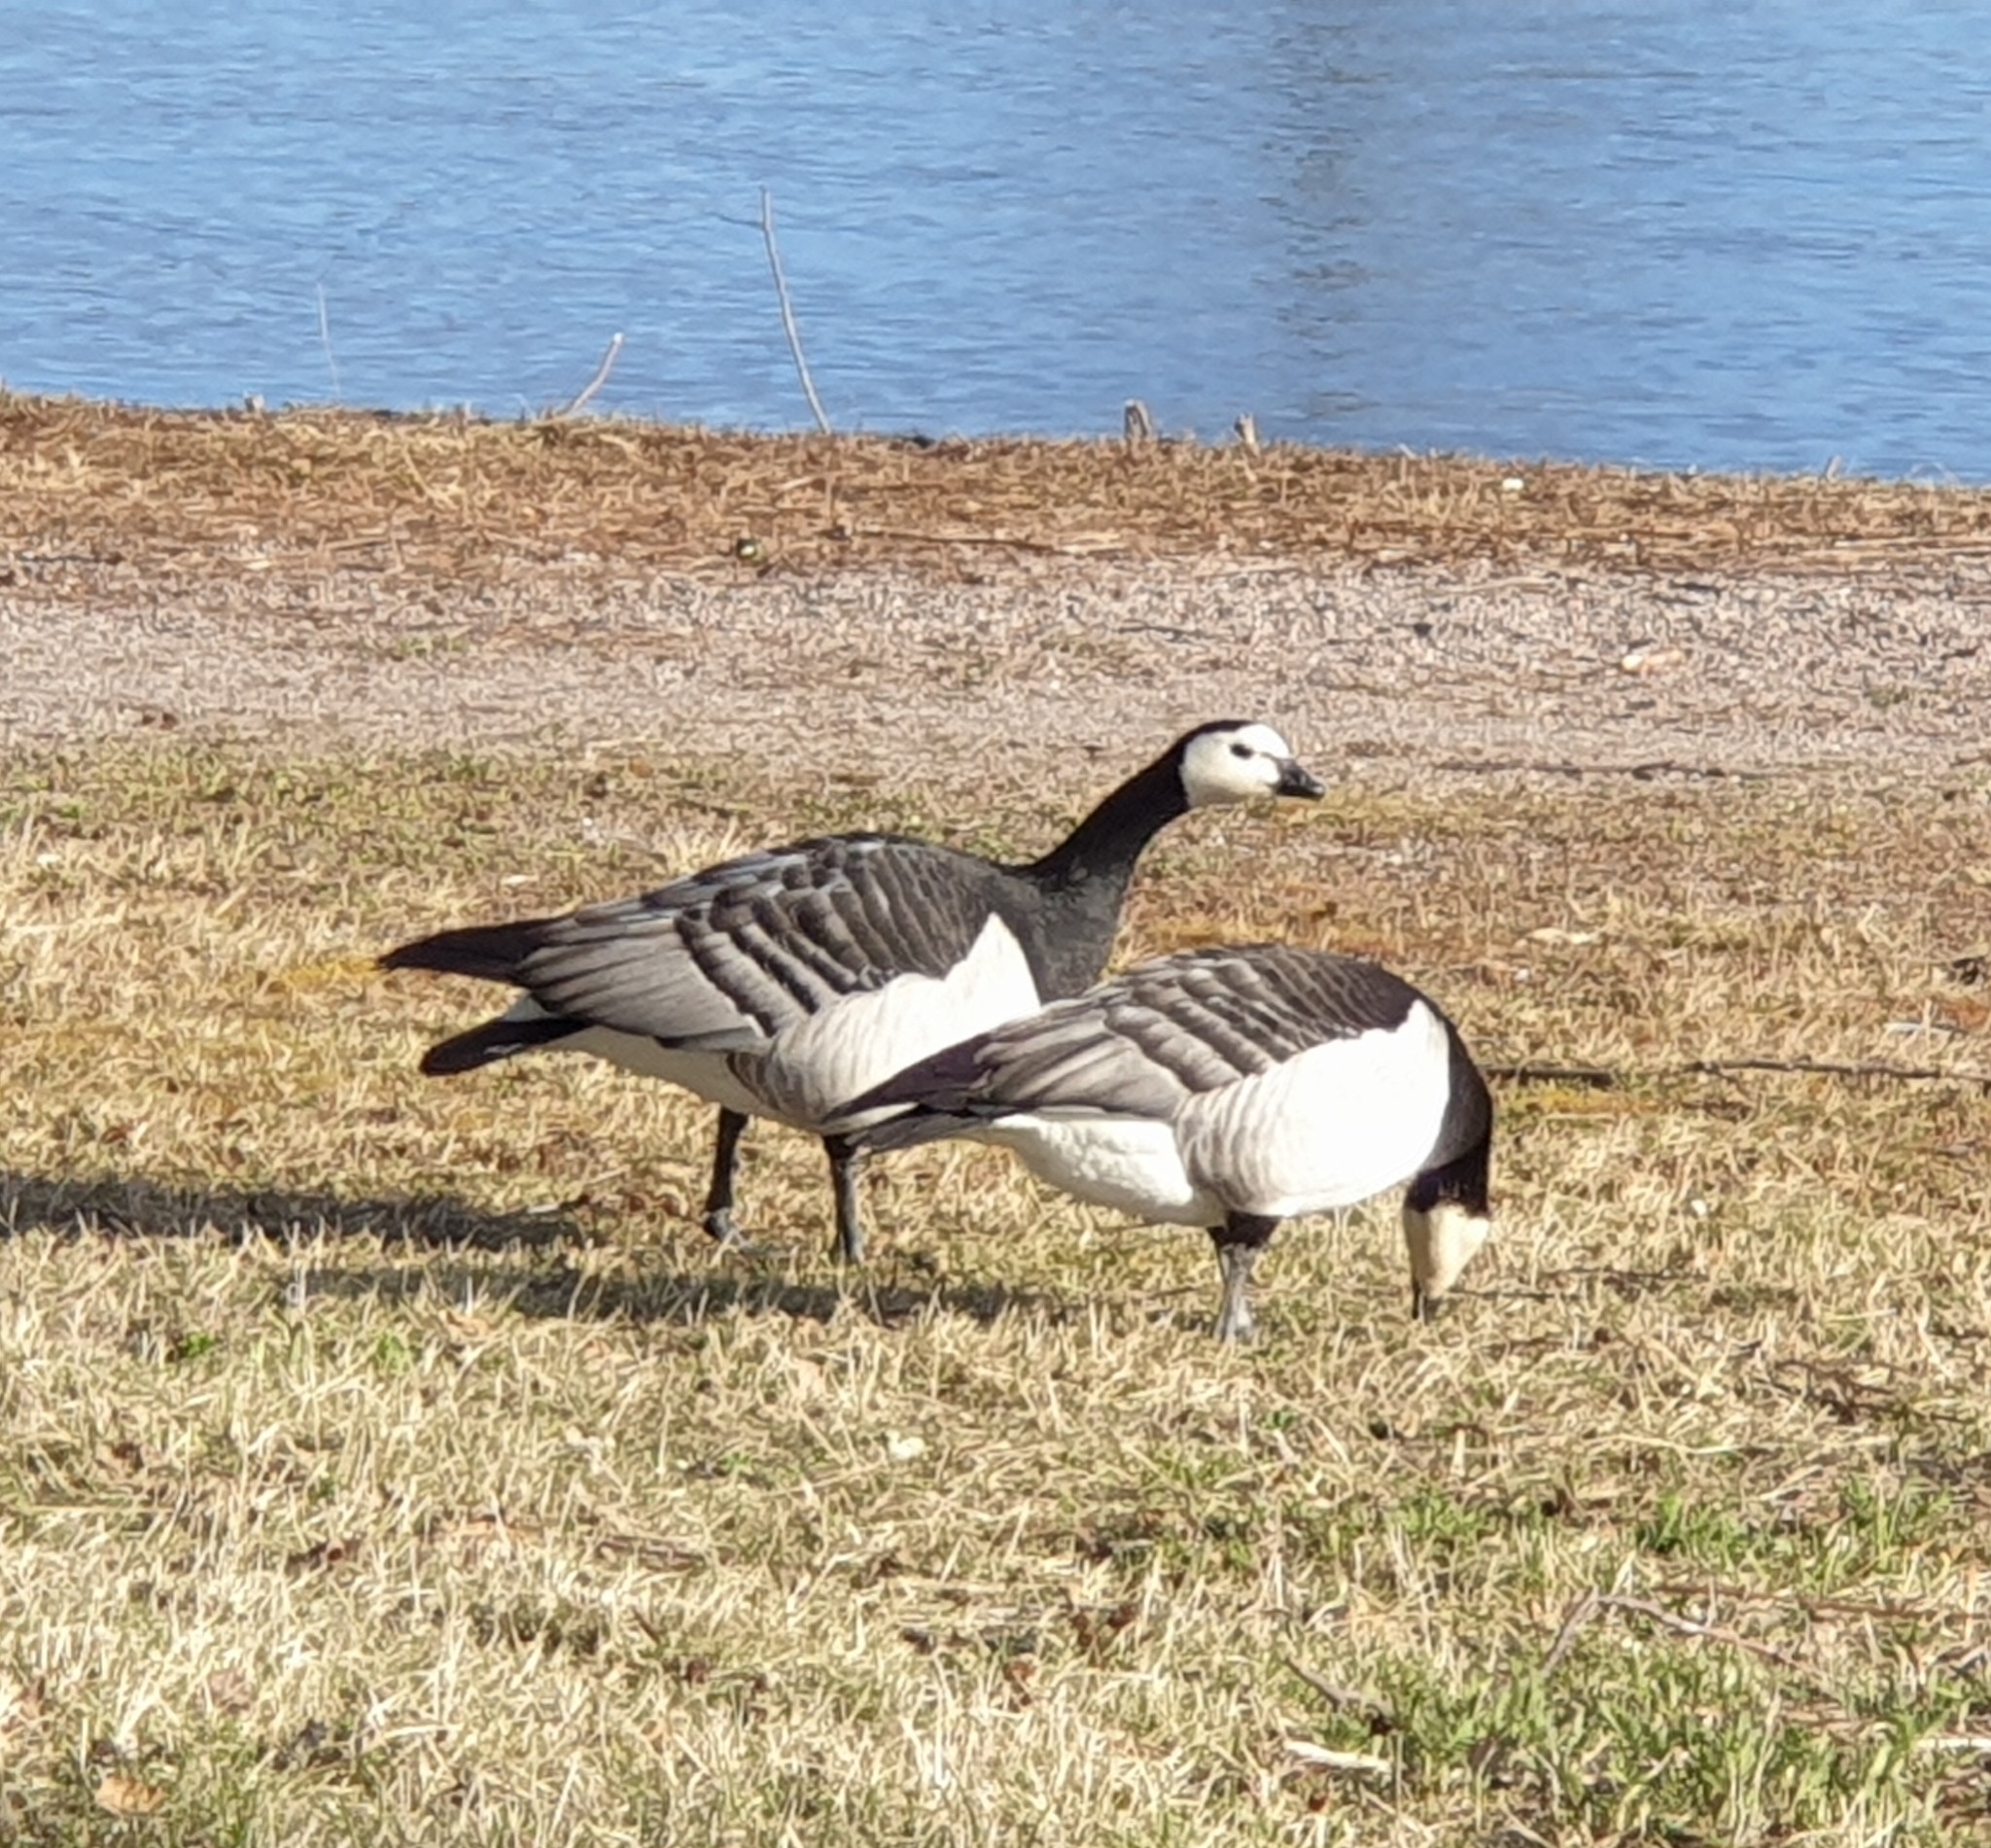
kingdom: Animalia
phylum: Chordata
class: Aves
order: Anseriformes
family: Anatidae
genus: Branta
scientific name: Branta leucopsis
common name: Barnacle goose
